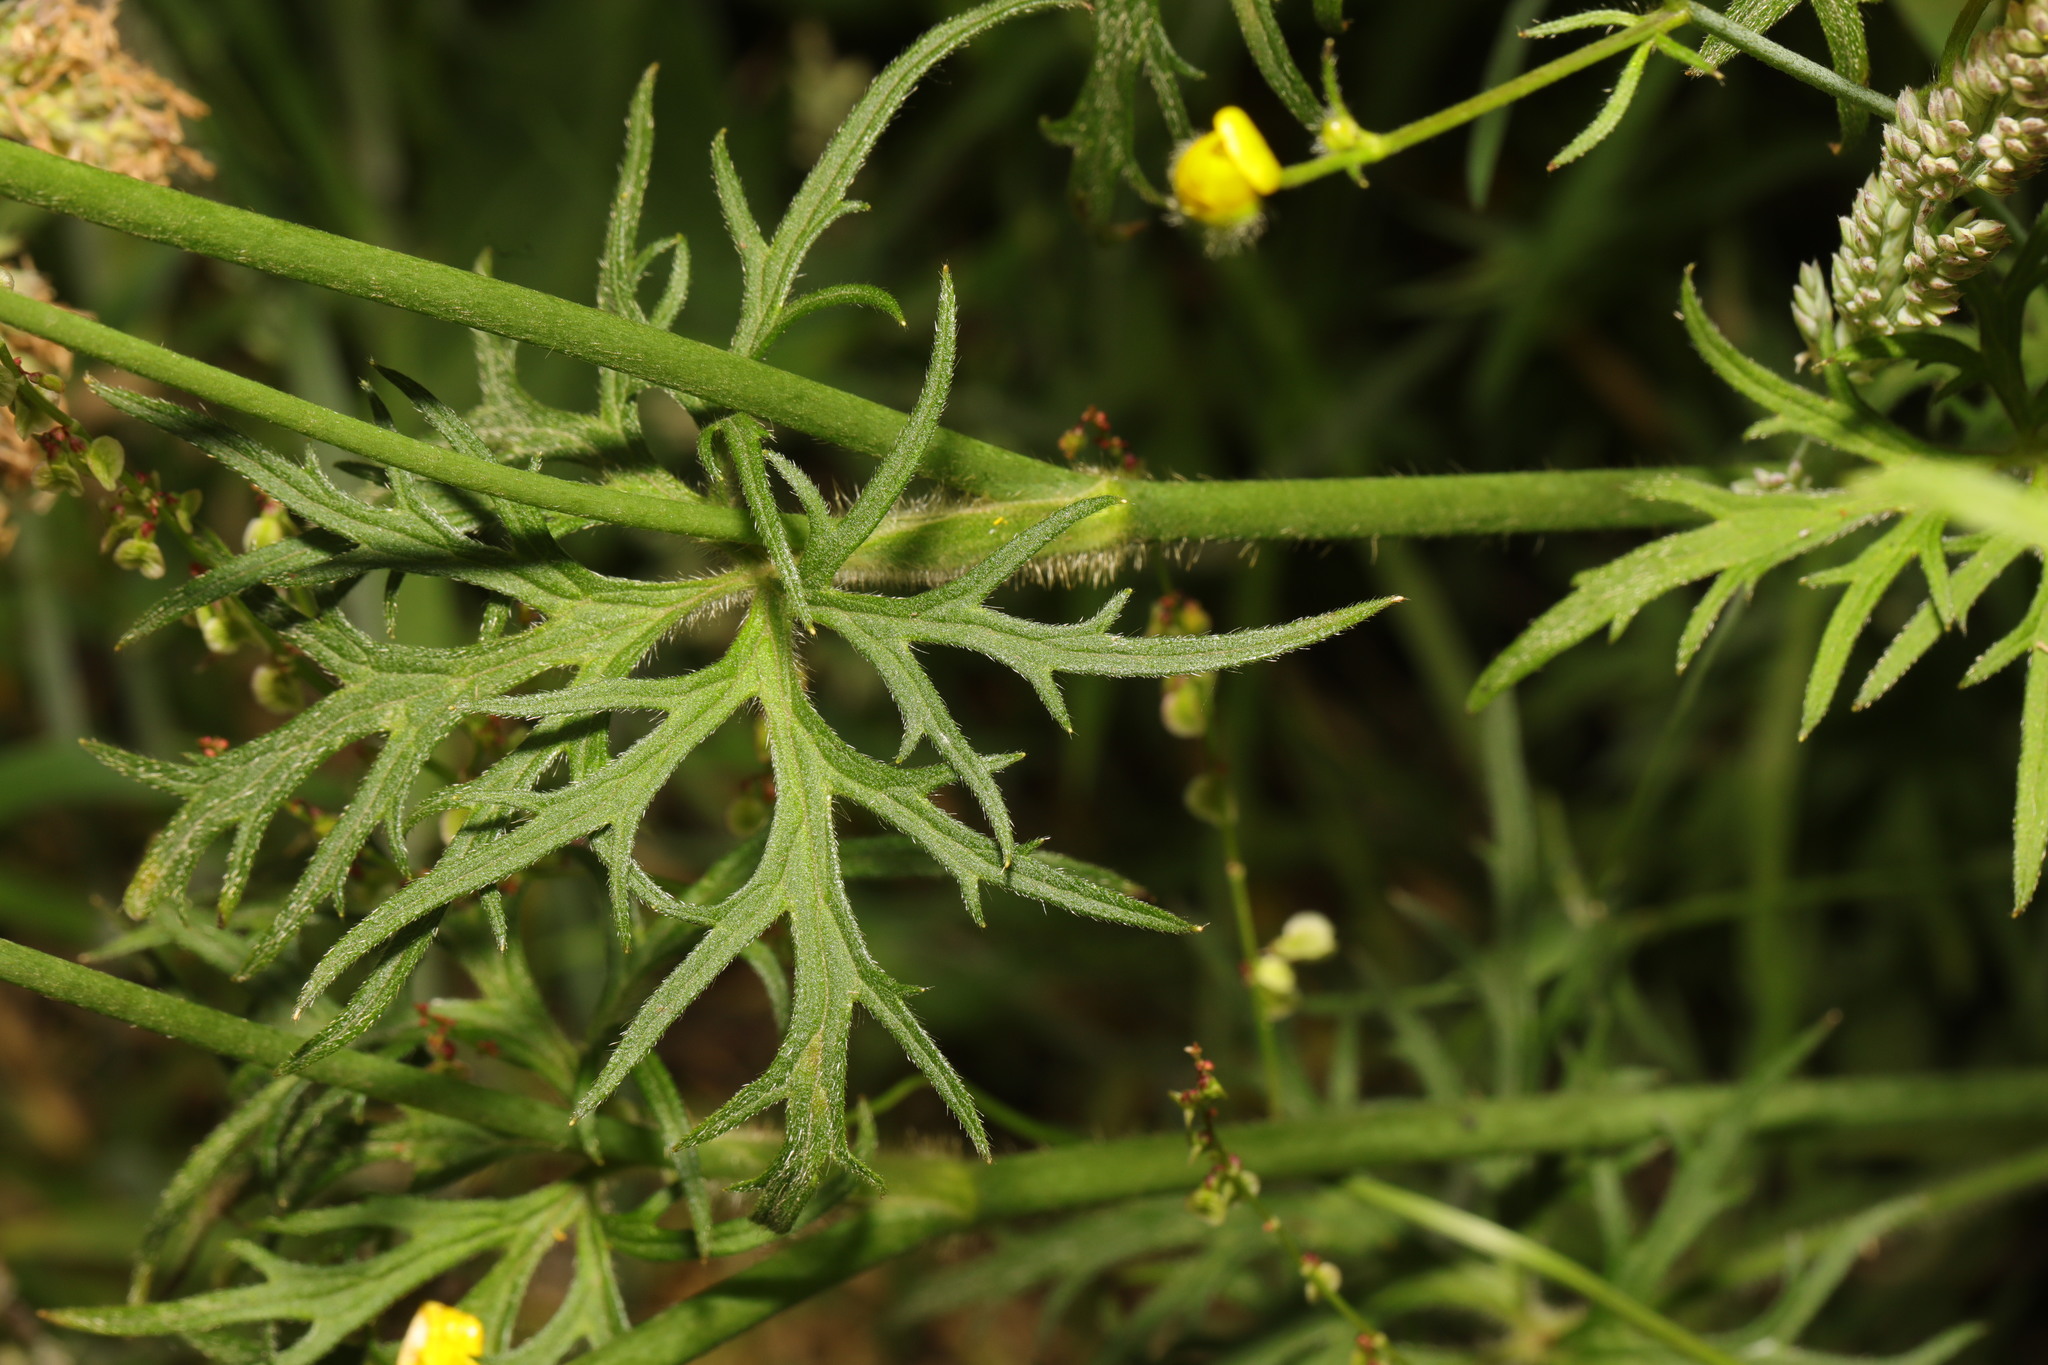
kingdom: Plantae
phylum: Tracheophyta
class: Magnoliopsida
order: Ranunculales
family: Ranunculaceae
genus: Ranunculus
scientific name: Ranunculus acris
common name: Meadow buttercup
